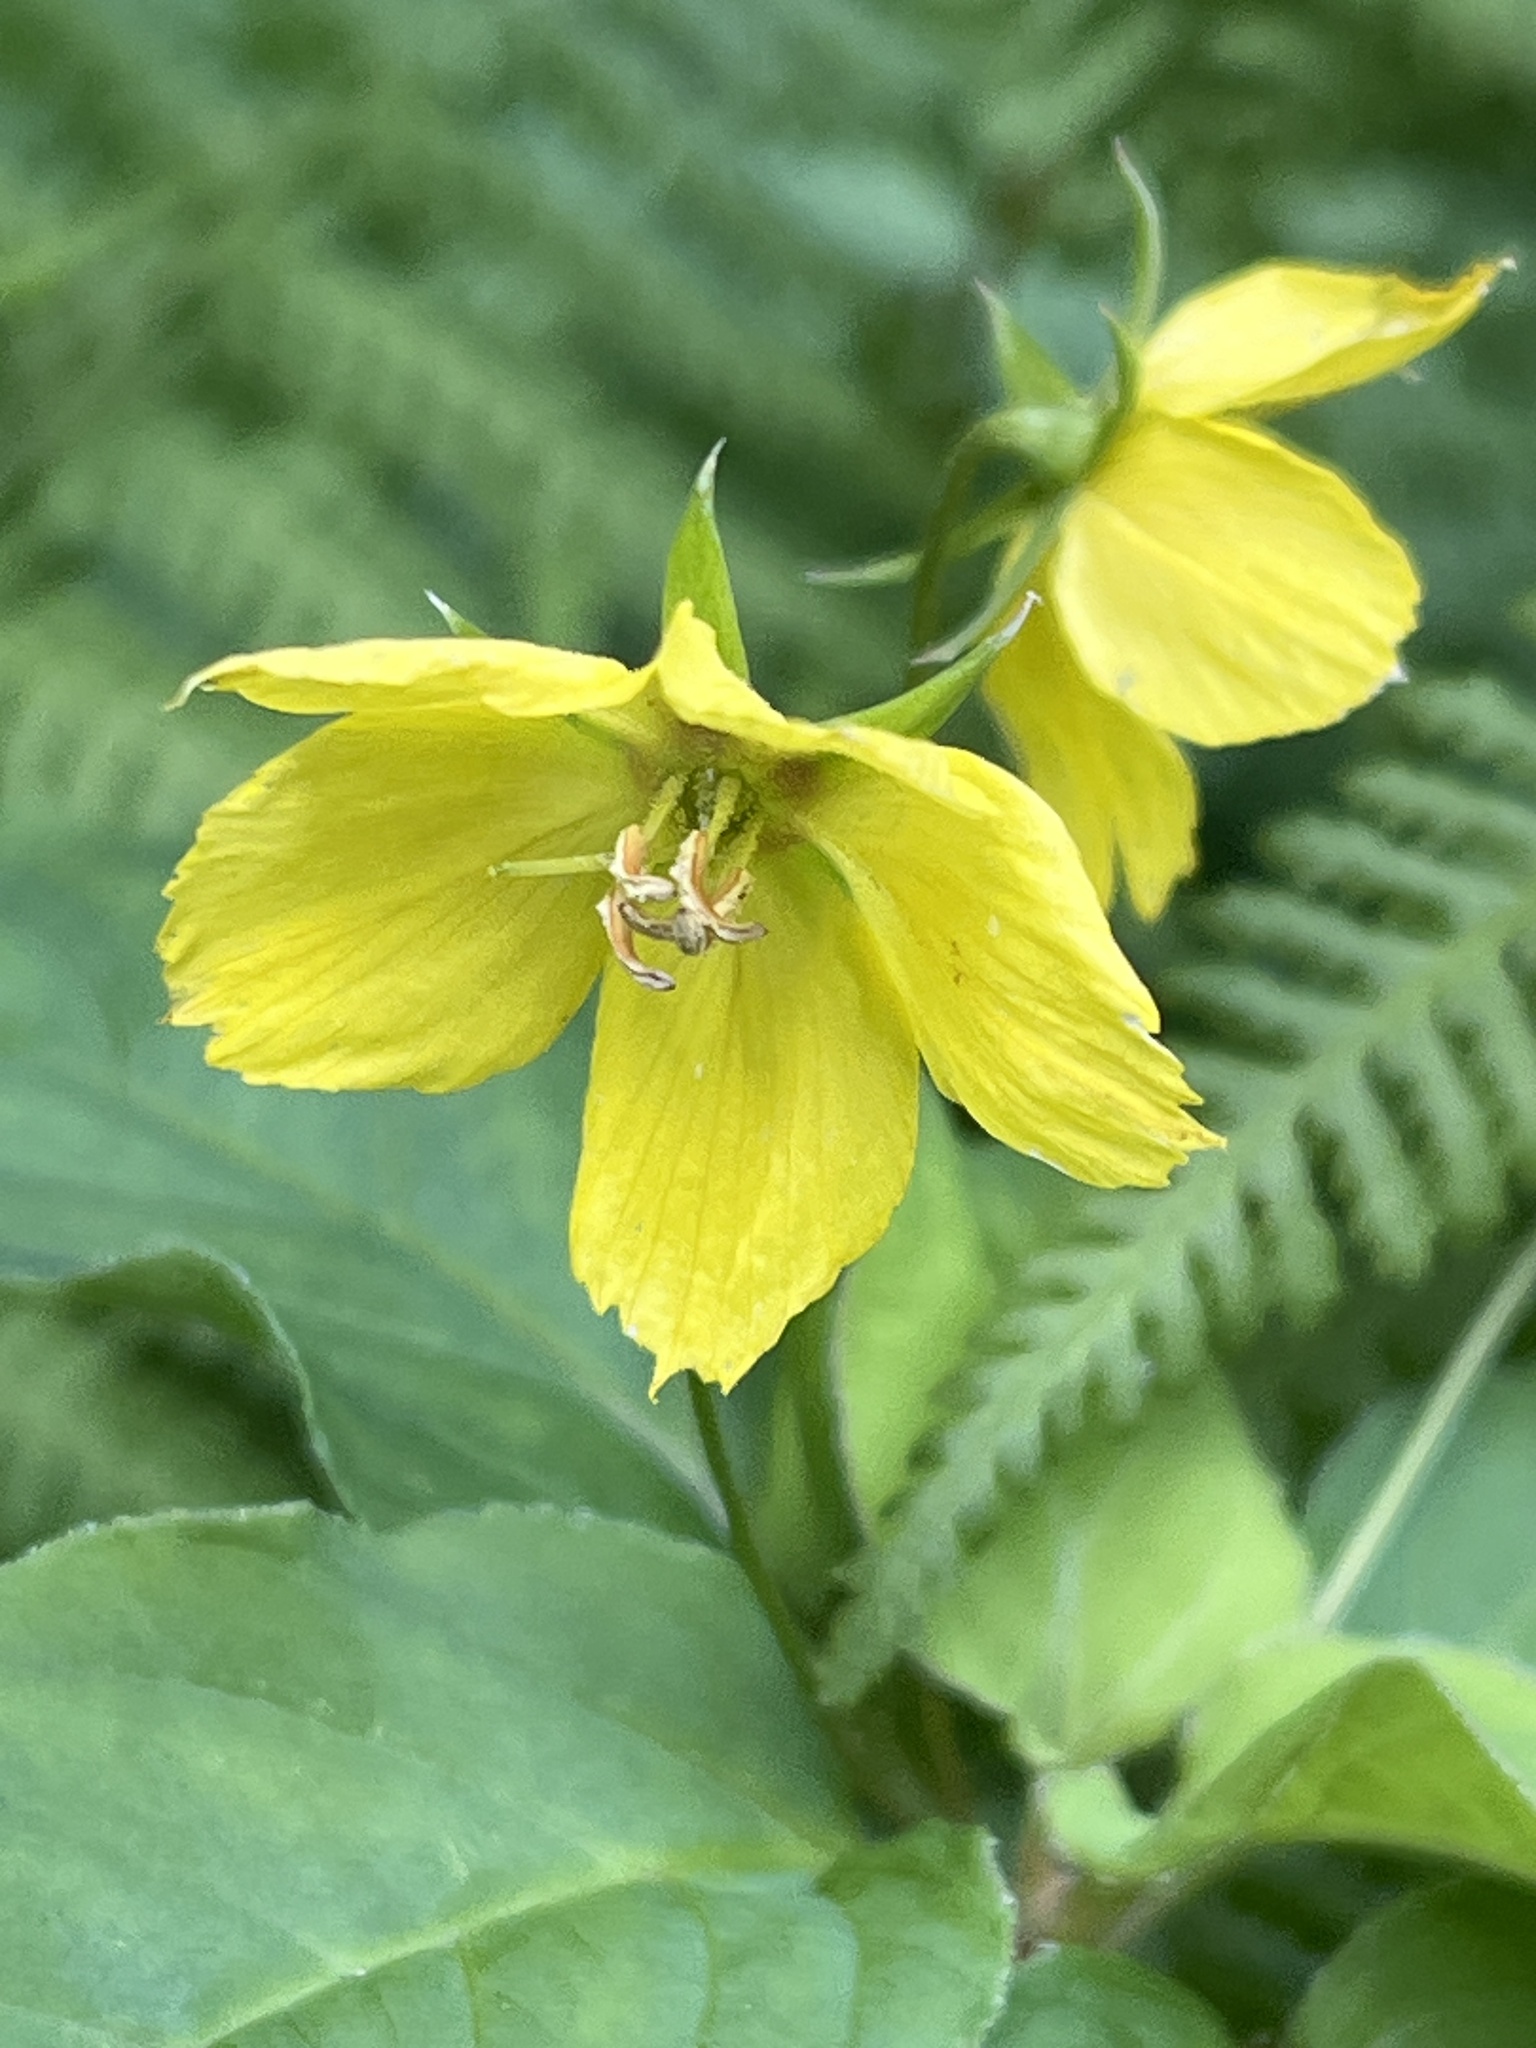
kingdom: Plantae
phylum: Tracheophyta
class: Magnoliopsida
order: Ericales
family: Primulaceae
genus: Lysimachia
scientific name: Lysimachia ciliata
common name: Fringed loosestrife
